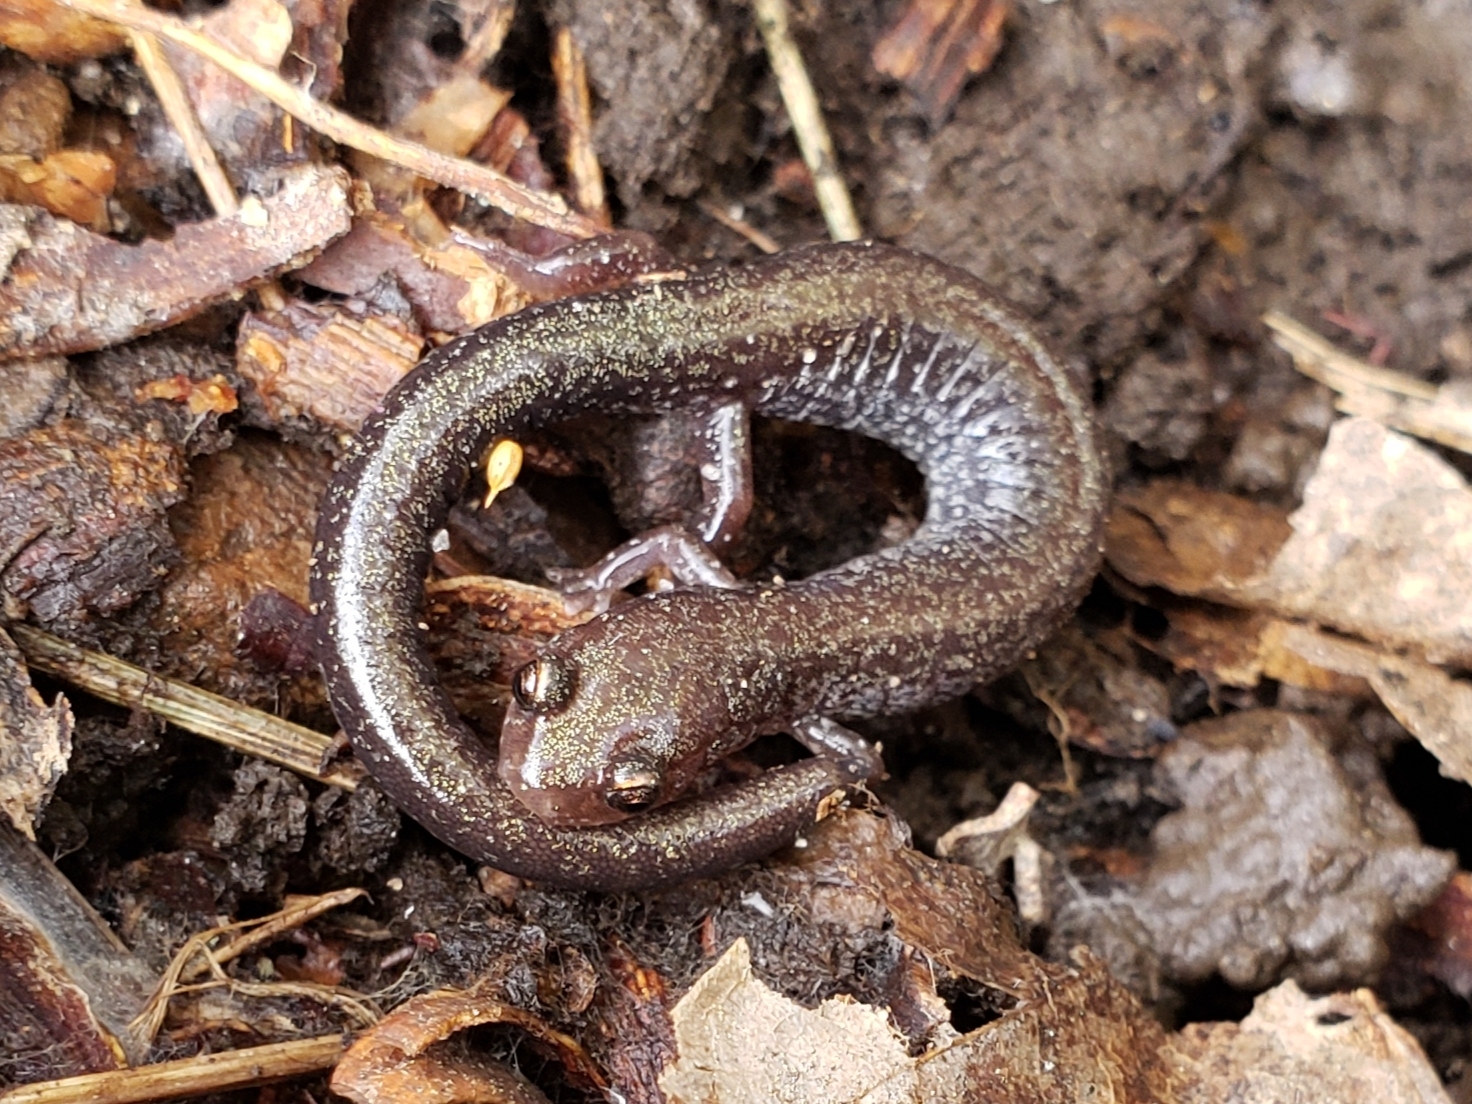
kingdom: Animalia
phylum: Chordata
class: Amphibia
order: Caudata
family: Plethodontidae
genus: Plethodon
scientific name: Plethodon cinereus
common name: Redback salamander
